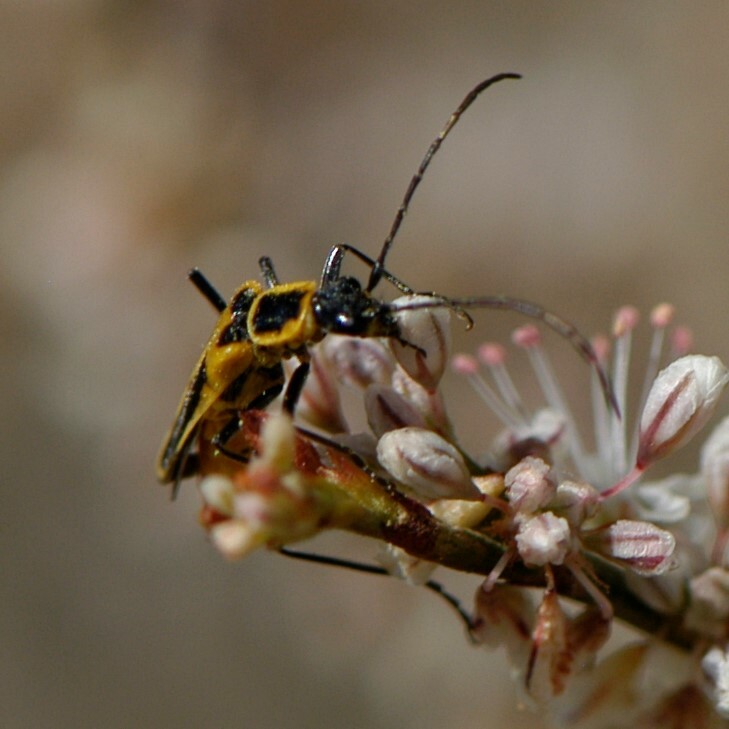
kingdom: Animalia
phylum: Arthropoda
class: Insecta
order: Coleoptera
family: Cantharidae
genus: Chauliognathus
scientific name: Chauliognathus lewisi
